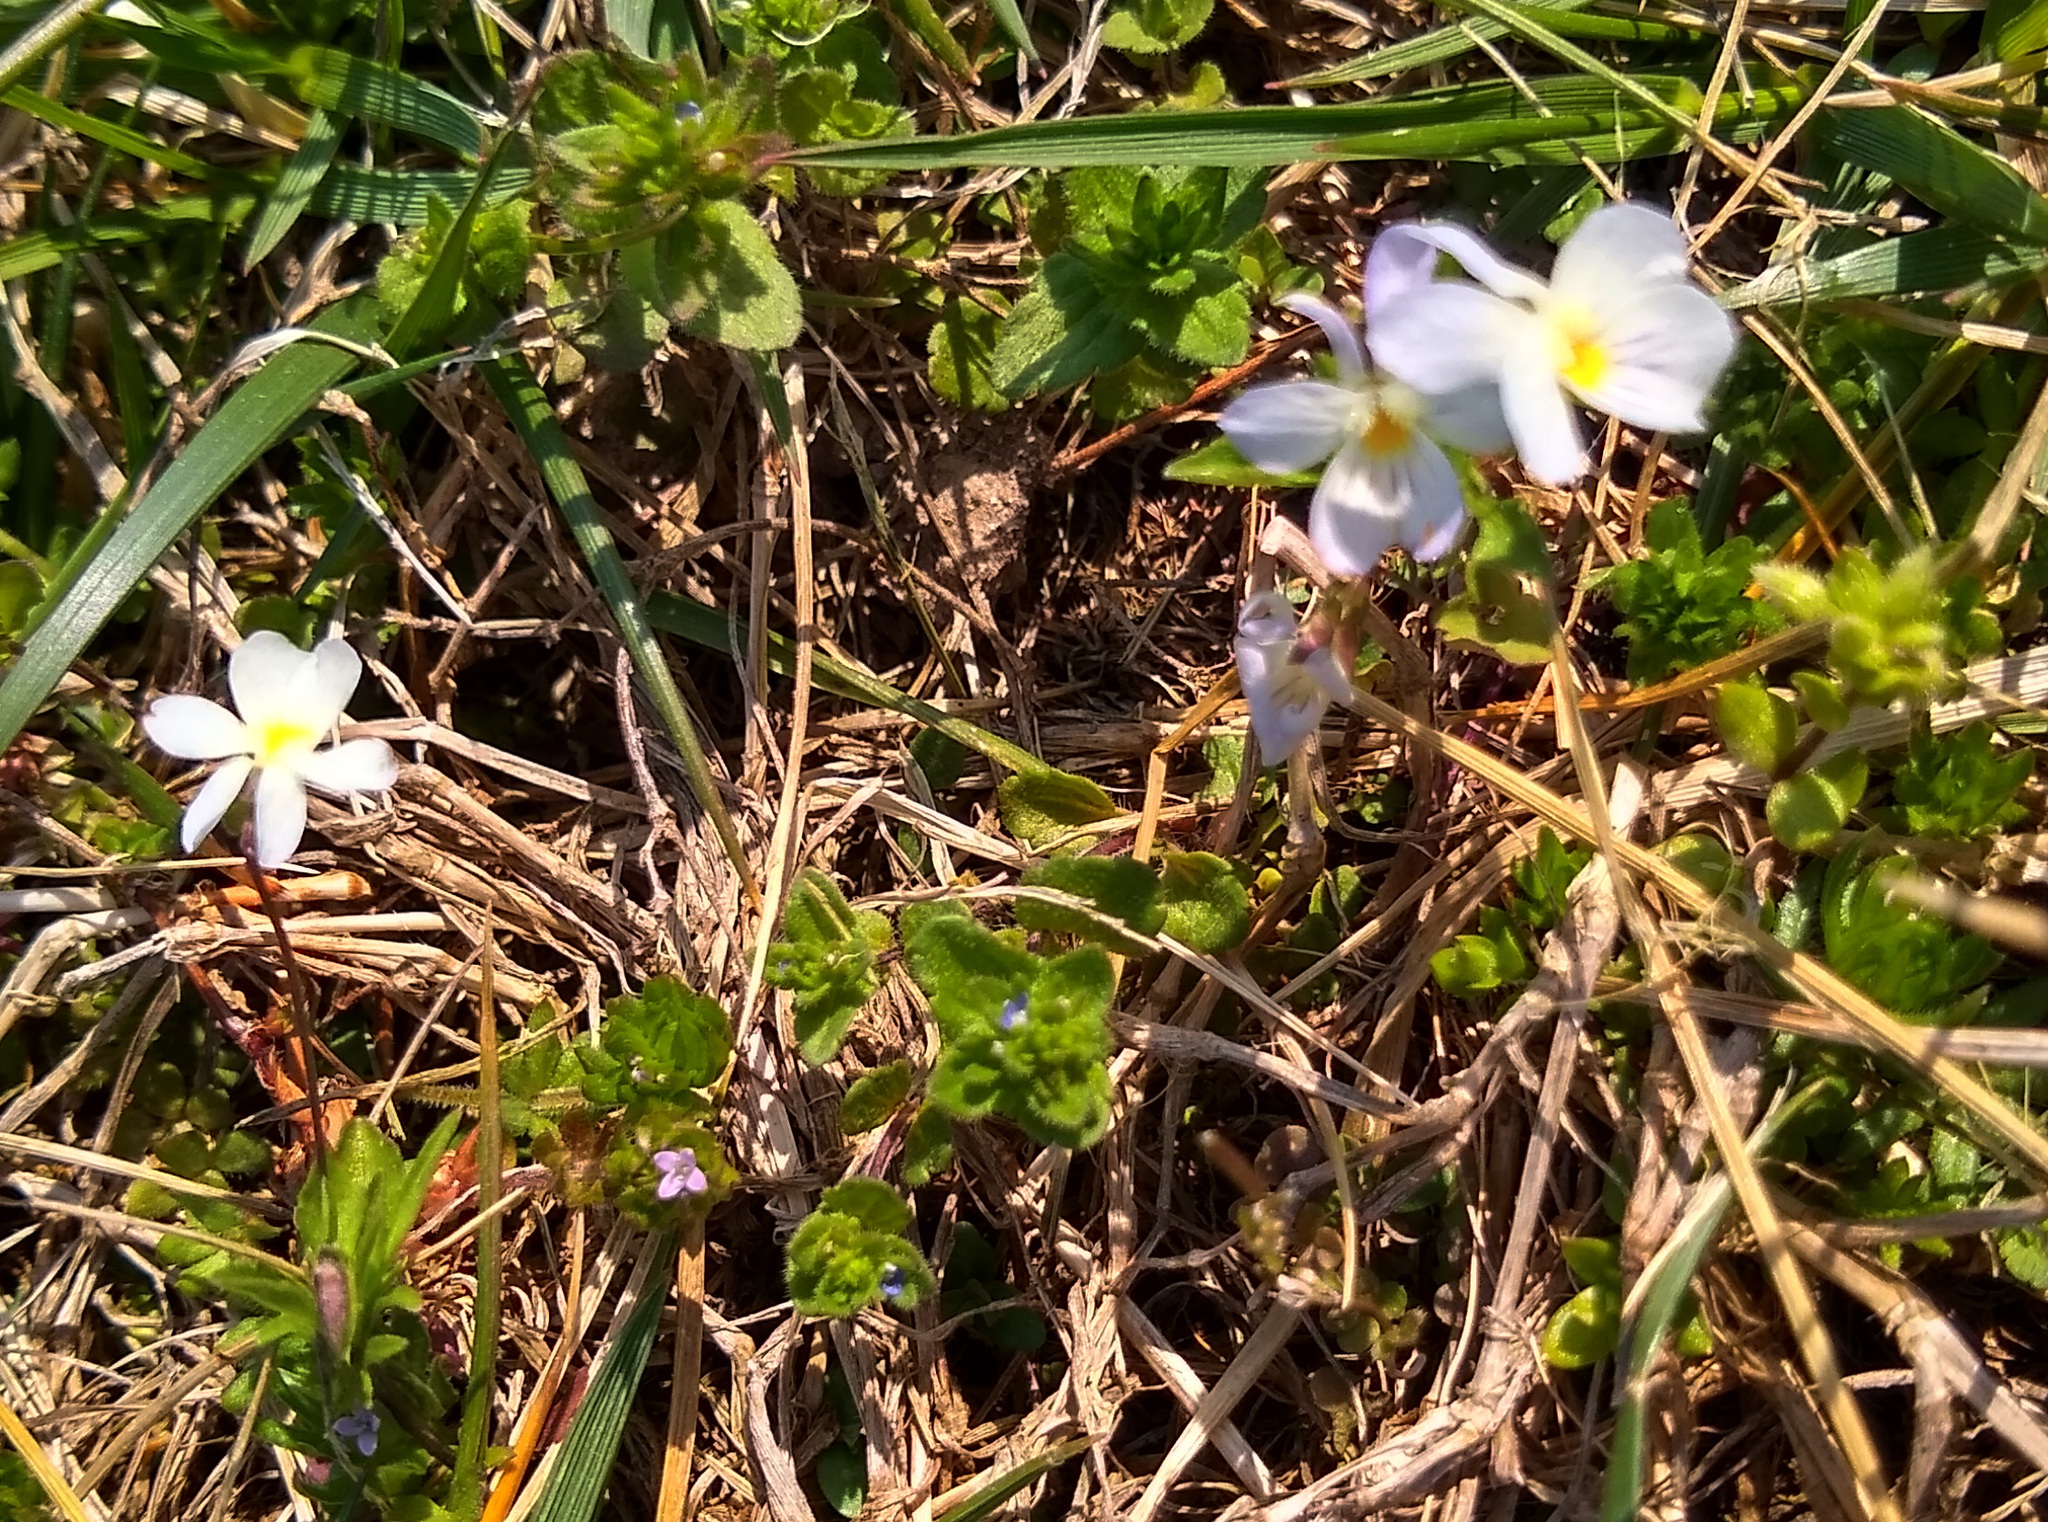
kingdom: Plantae
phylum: Tracheophyta
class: Magnoliopsida
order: Malpighiales
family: Violaceae
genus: Viola
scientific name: Viola rafinesquei
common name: American field pansy
